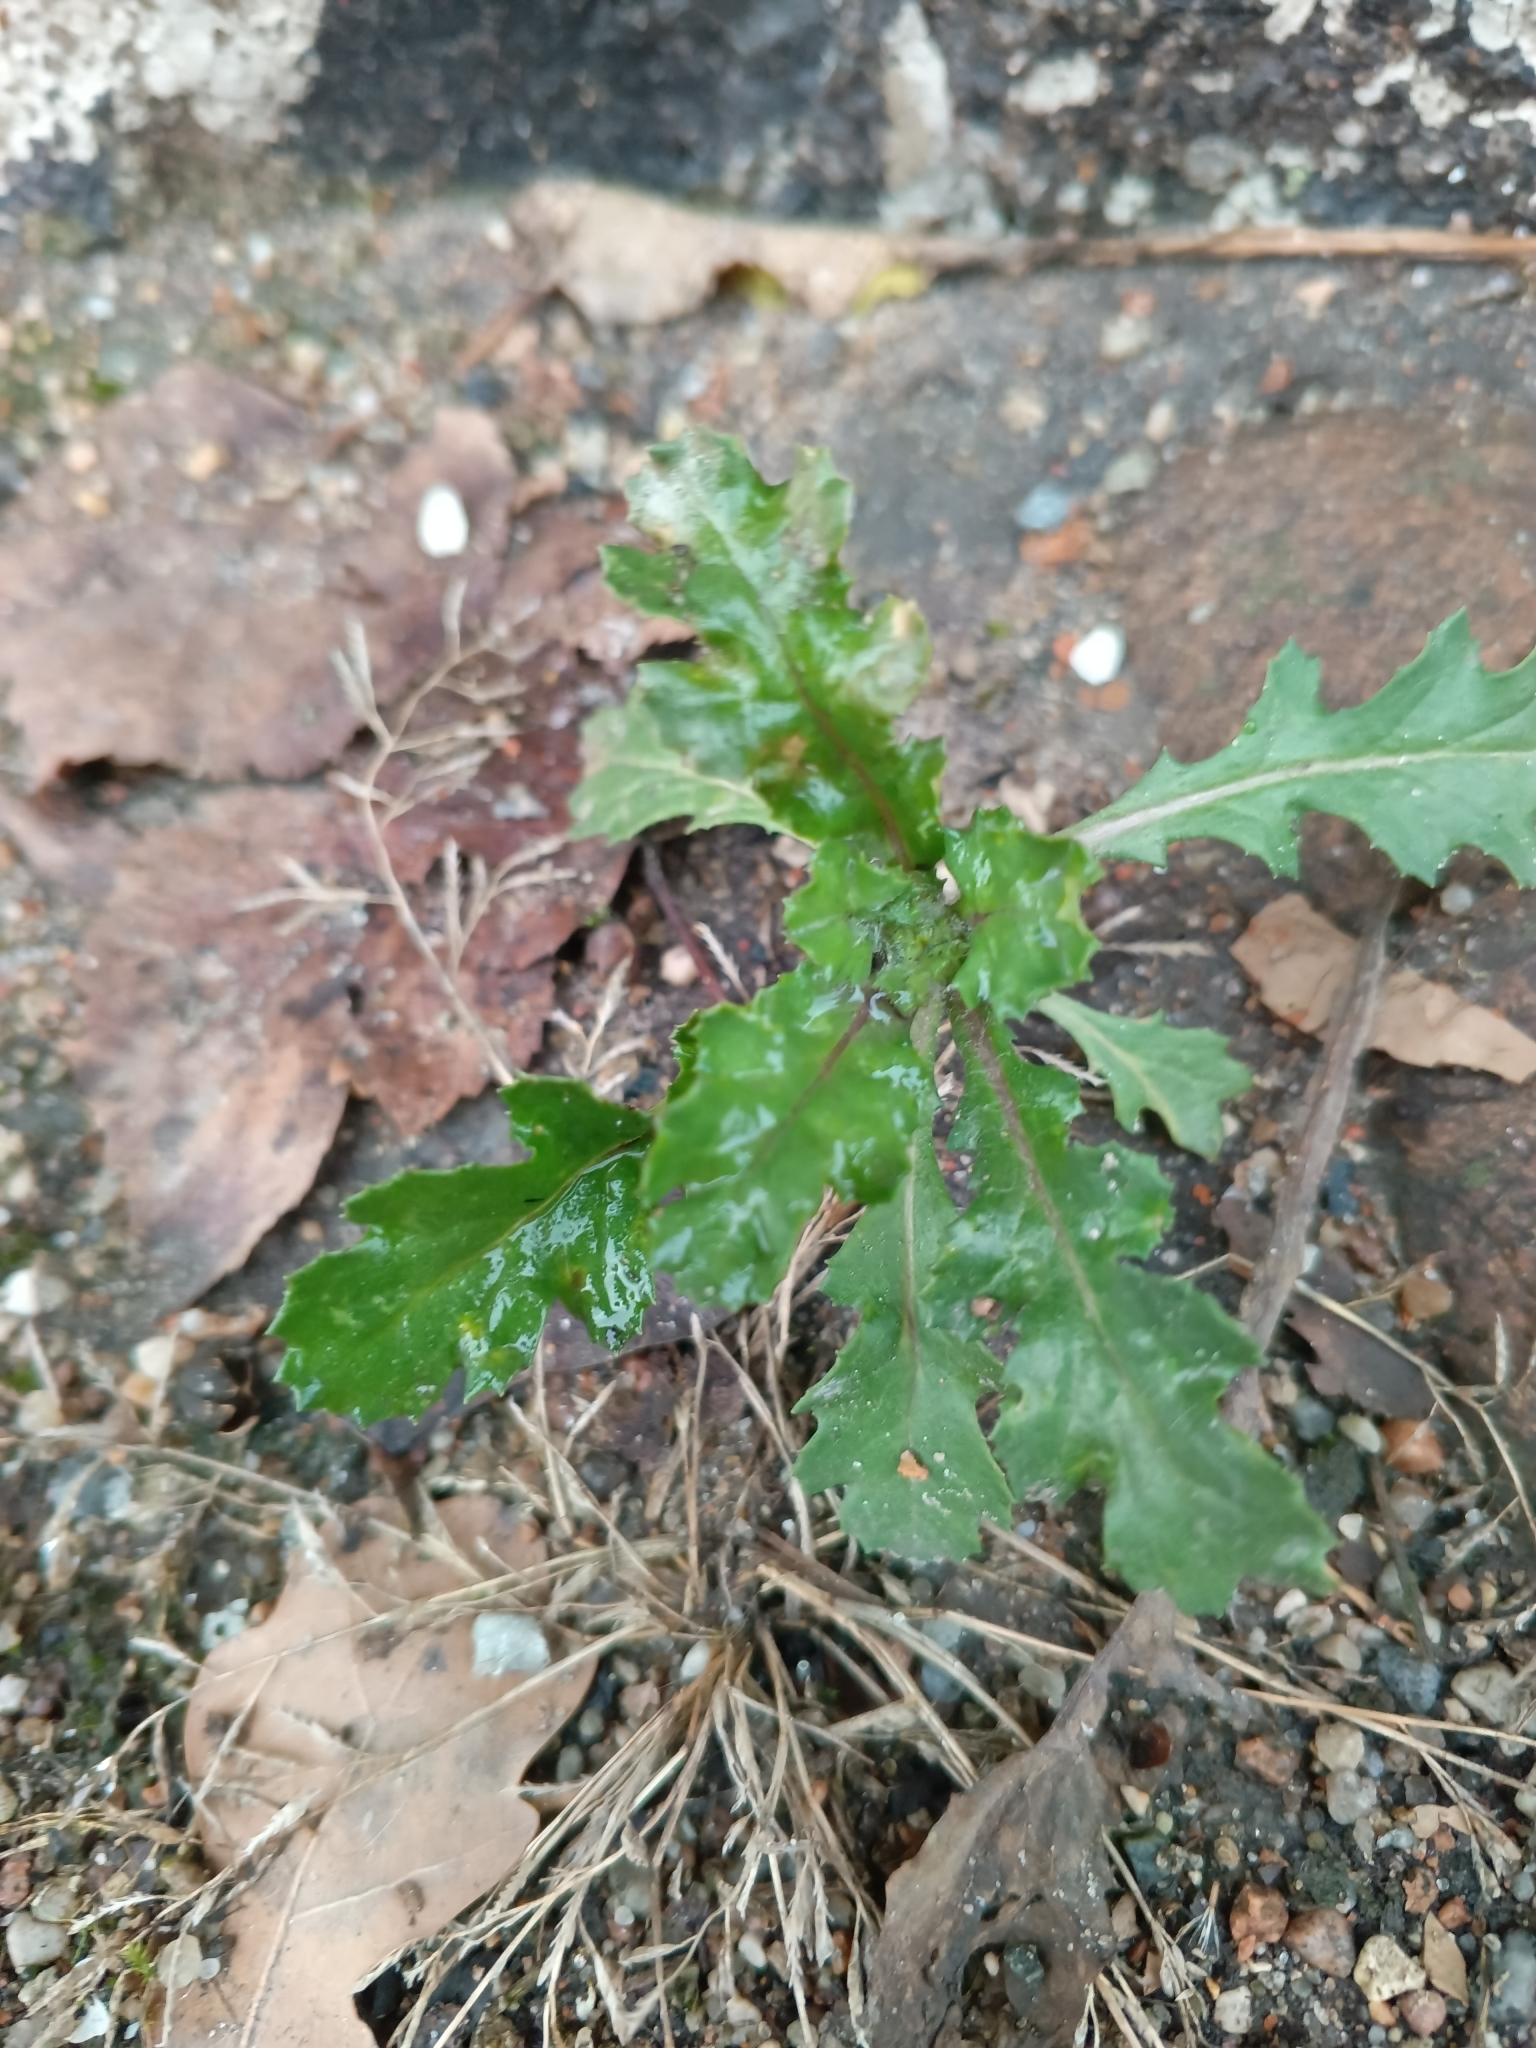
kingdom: Plantae
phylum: Tracheophyta
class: Magnoliopsida
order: Asterales
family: Asteraceae
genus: Senecio
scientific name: Senecio vulgaris
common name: Old-man-in-the-spring
